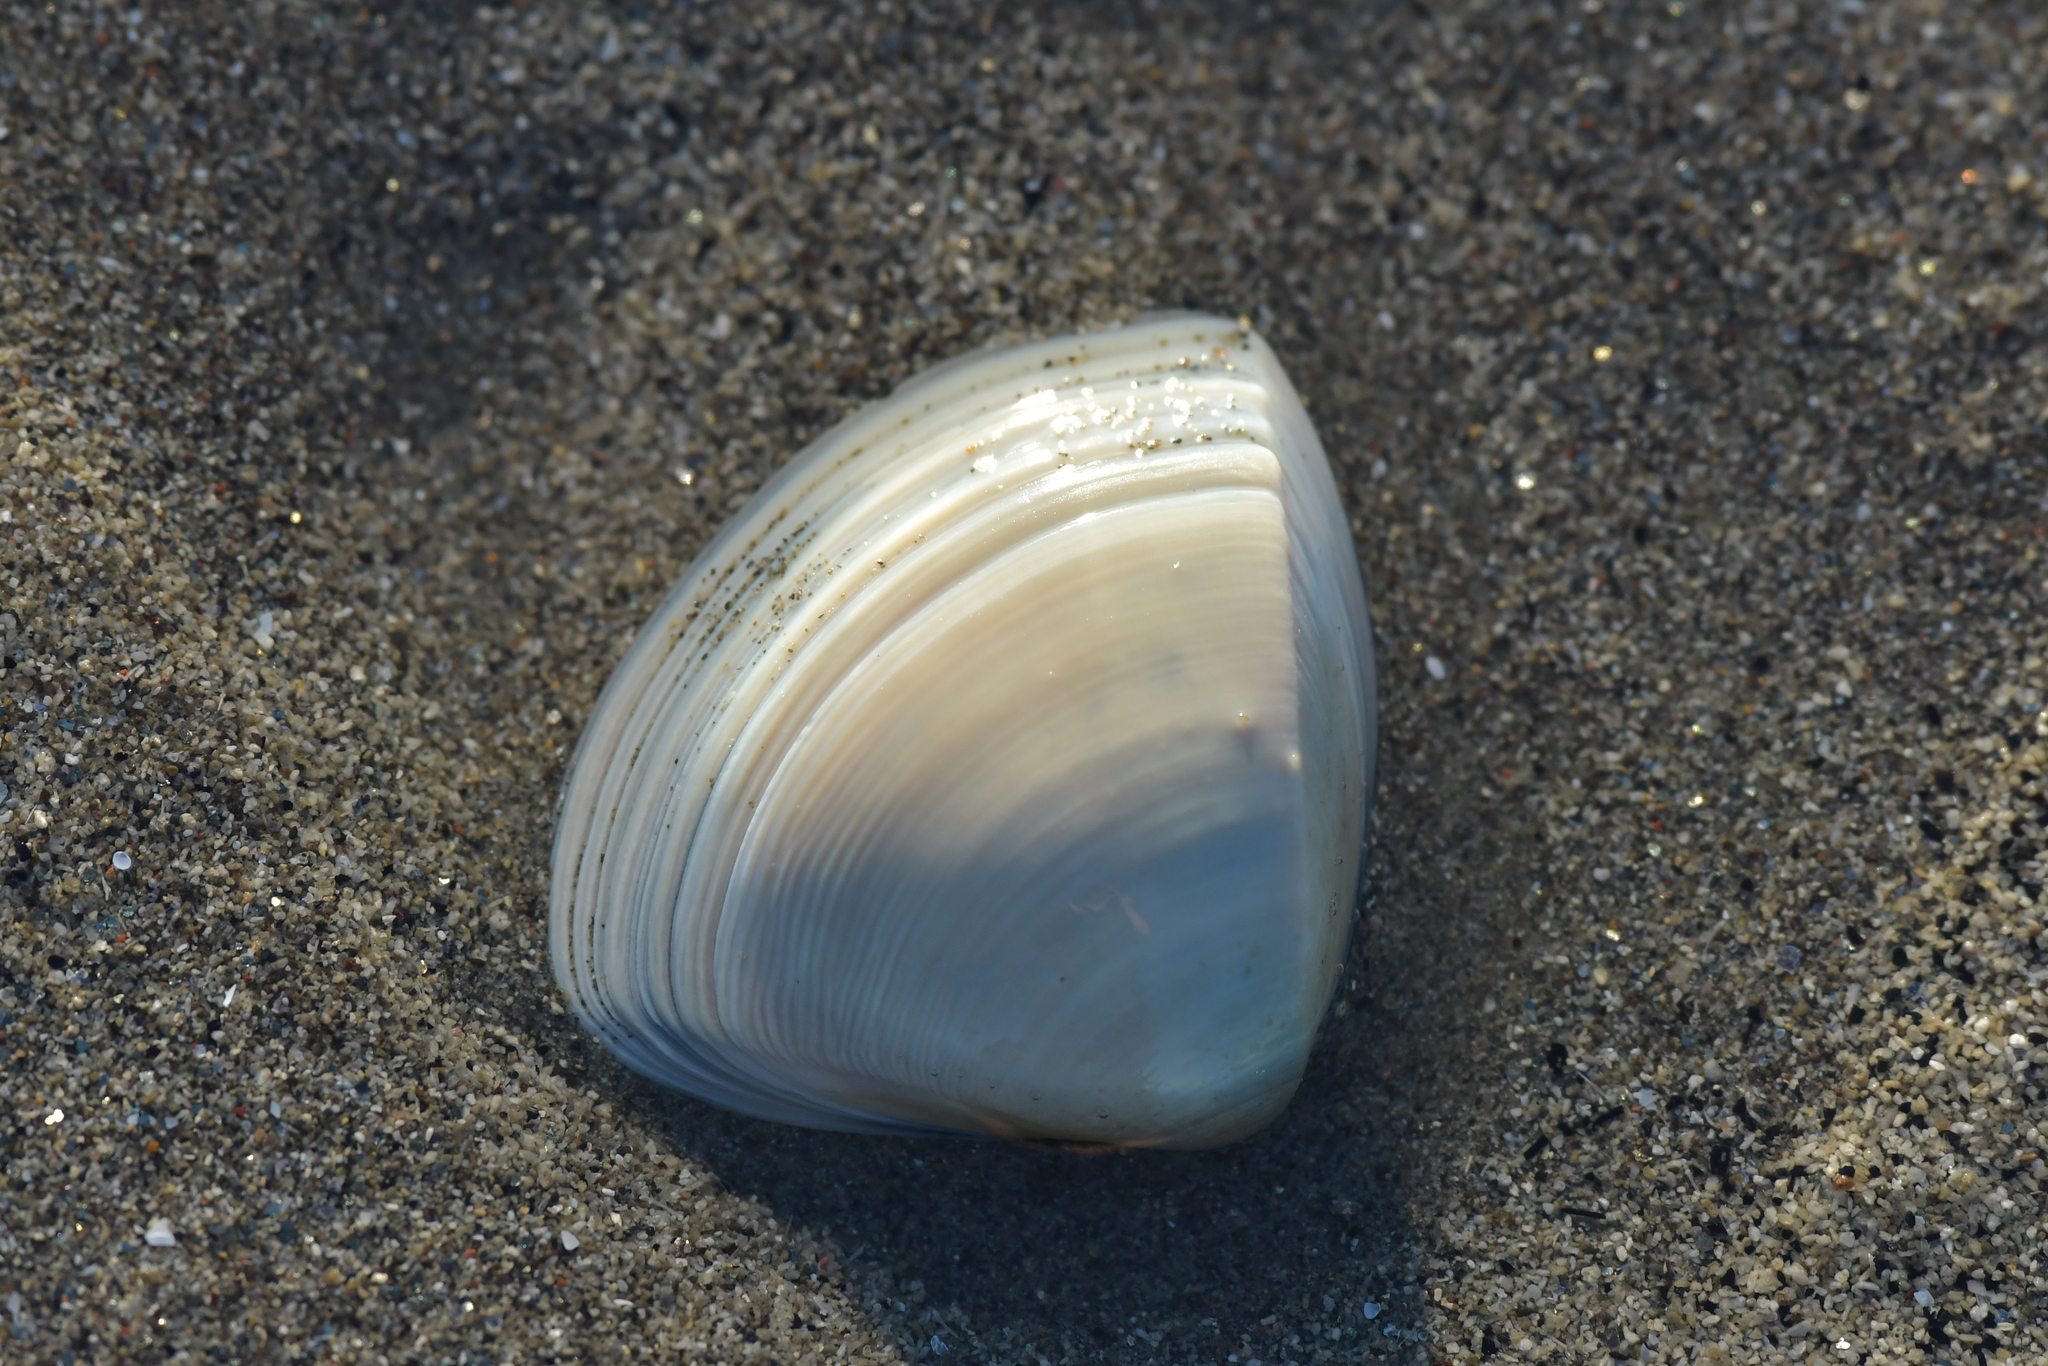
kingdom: Animalia
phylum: Mollusca
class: Bivalvia
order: Venerida
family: Mactridae
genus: Crassula
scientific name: Crassula aequilatera
